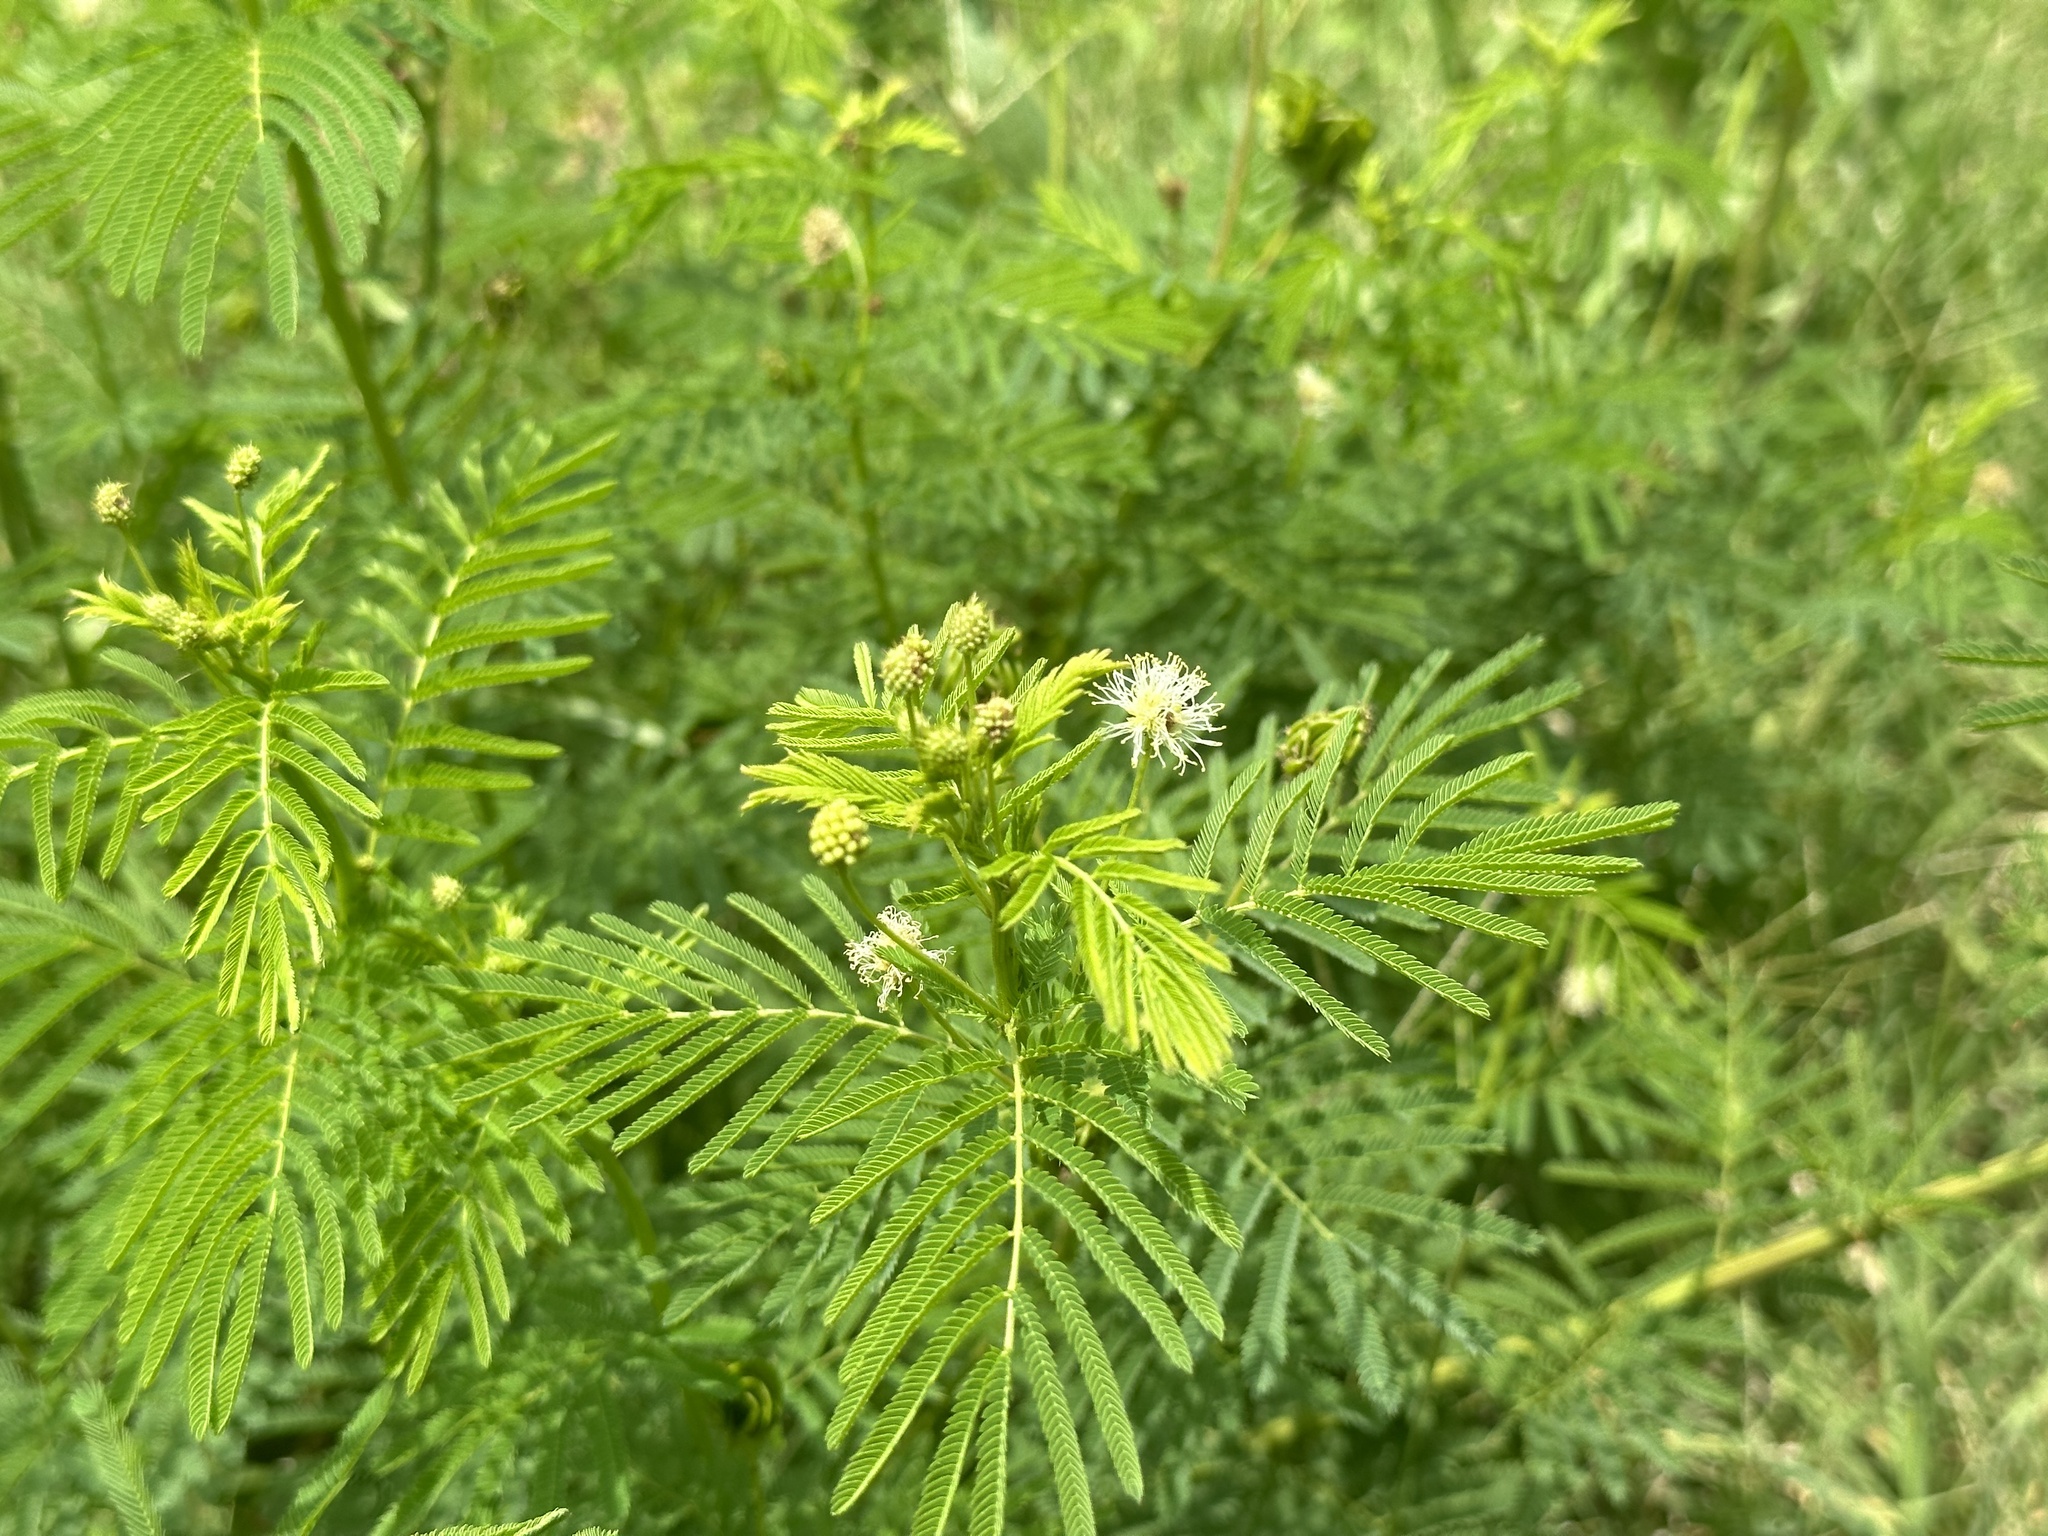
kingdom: Plantae
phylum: Tracheophyta
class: Magnoliopsida
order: Fabales
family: Fabaceae
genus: Desmanthus
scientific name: Desmanthus illinoensis
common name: Illinois bundle-flower
